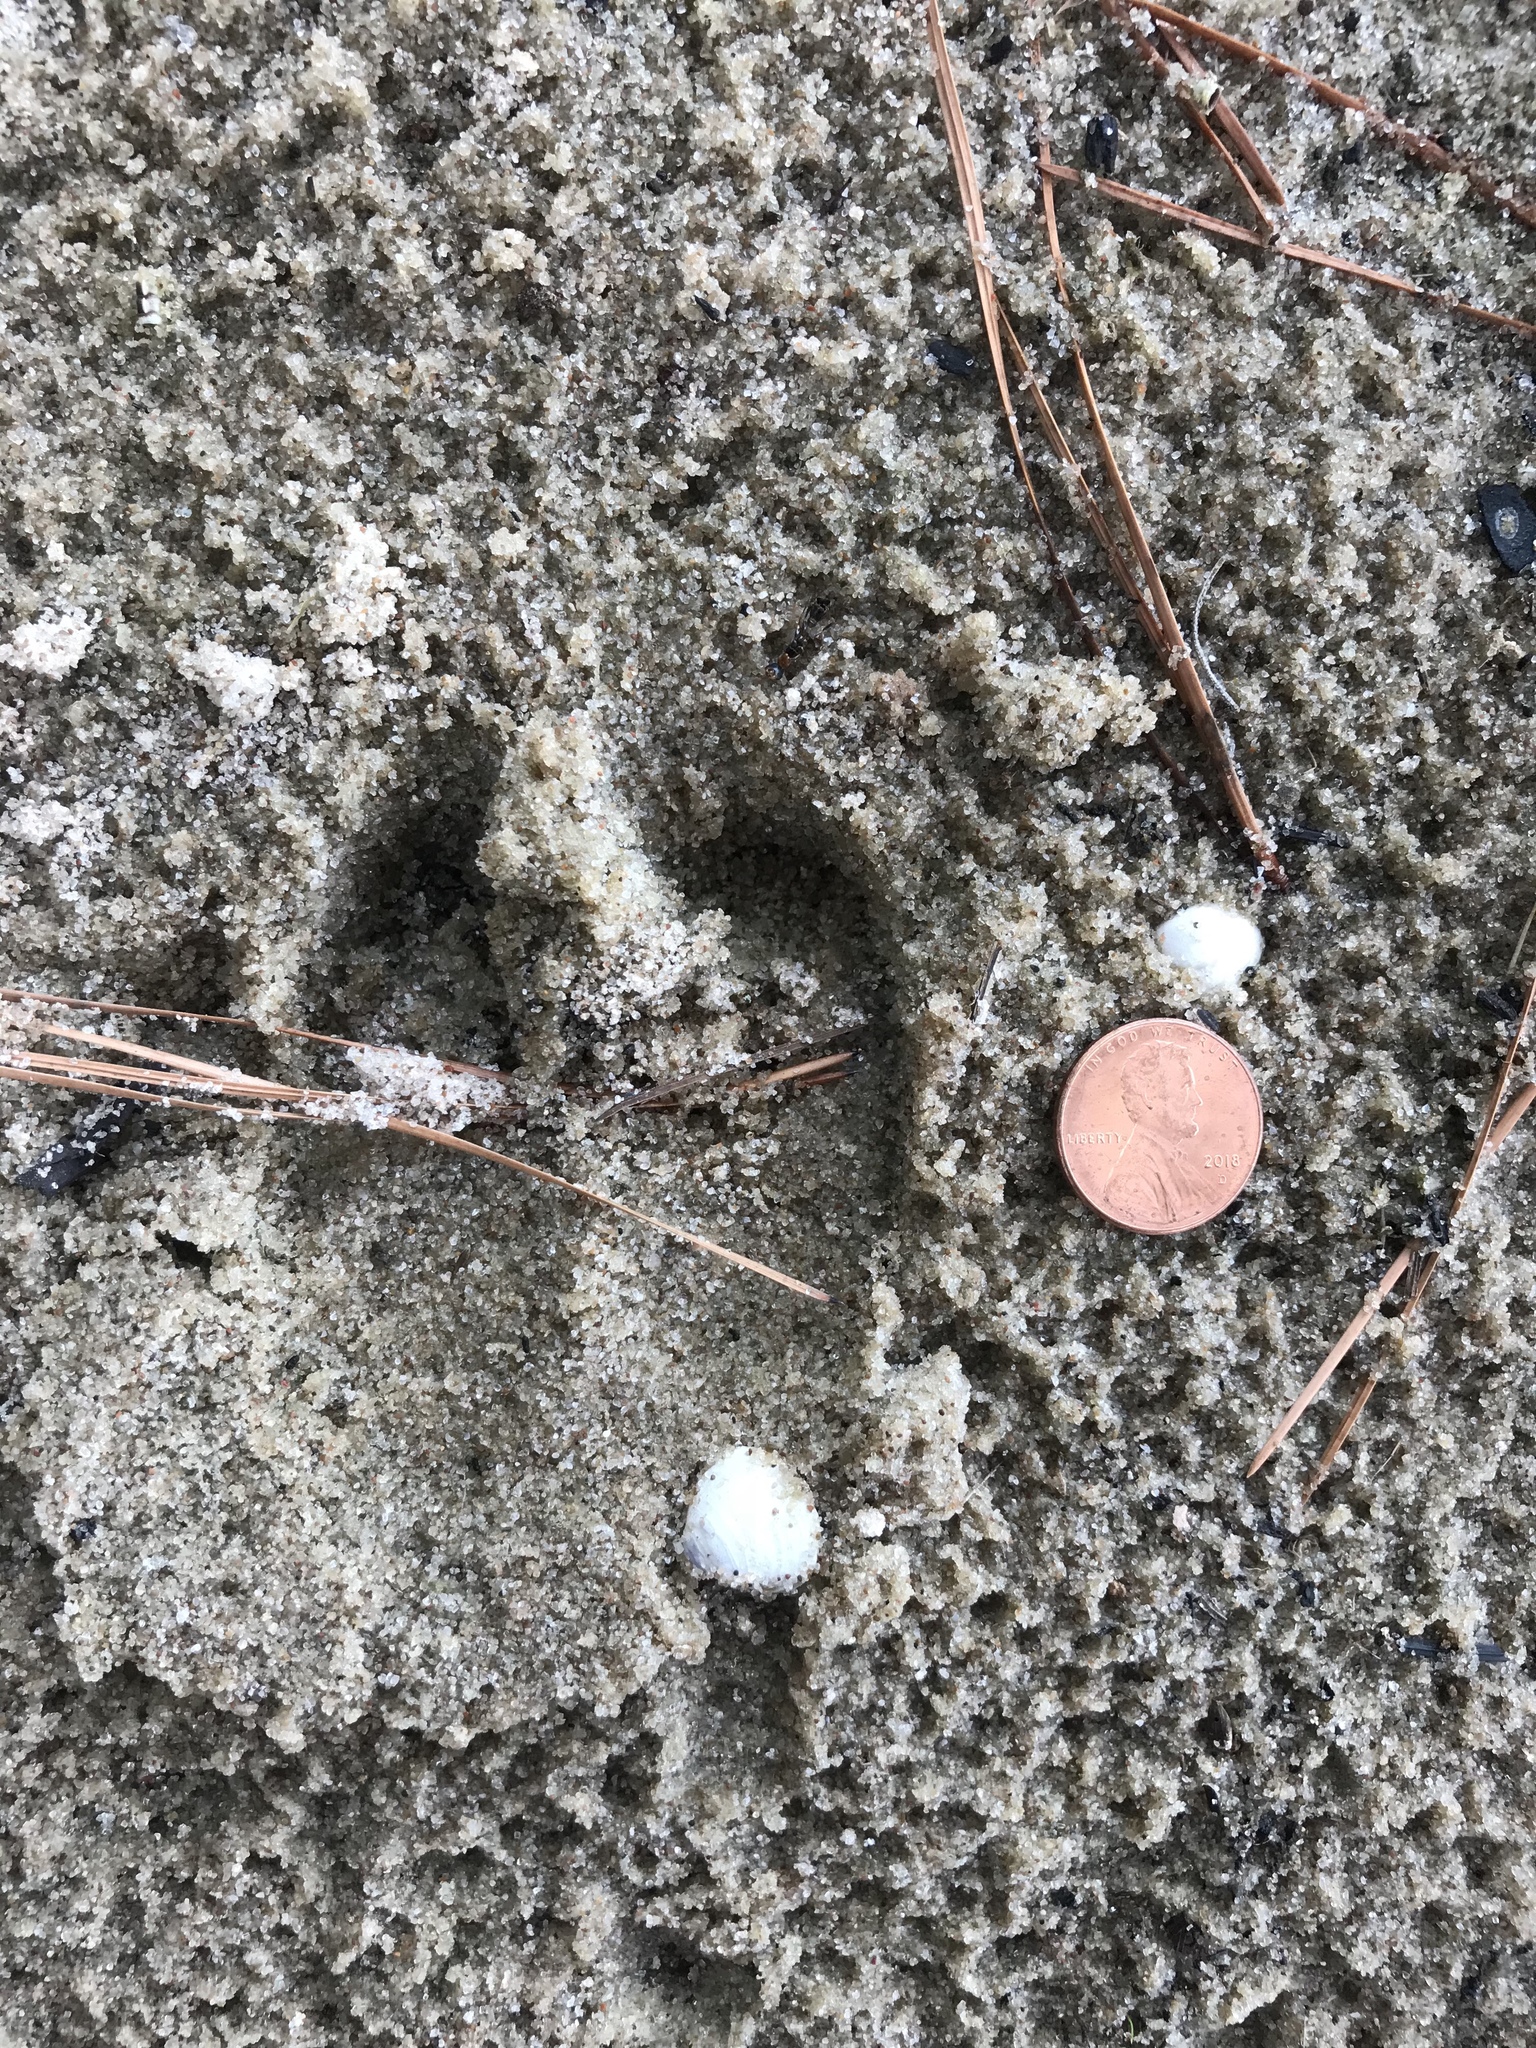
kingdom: Animalia
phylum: Chordata
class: Mammalia
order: Artiodactyla
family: Suidae
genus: Sus
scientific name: Sus scrofa
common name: Wild boar
